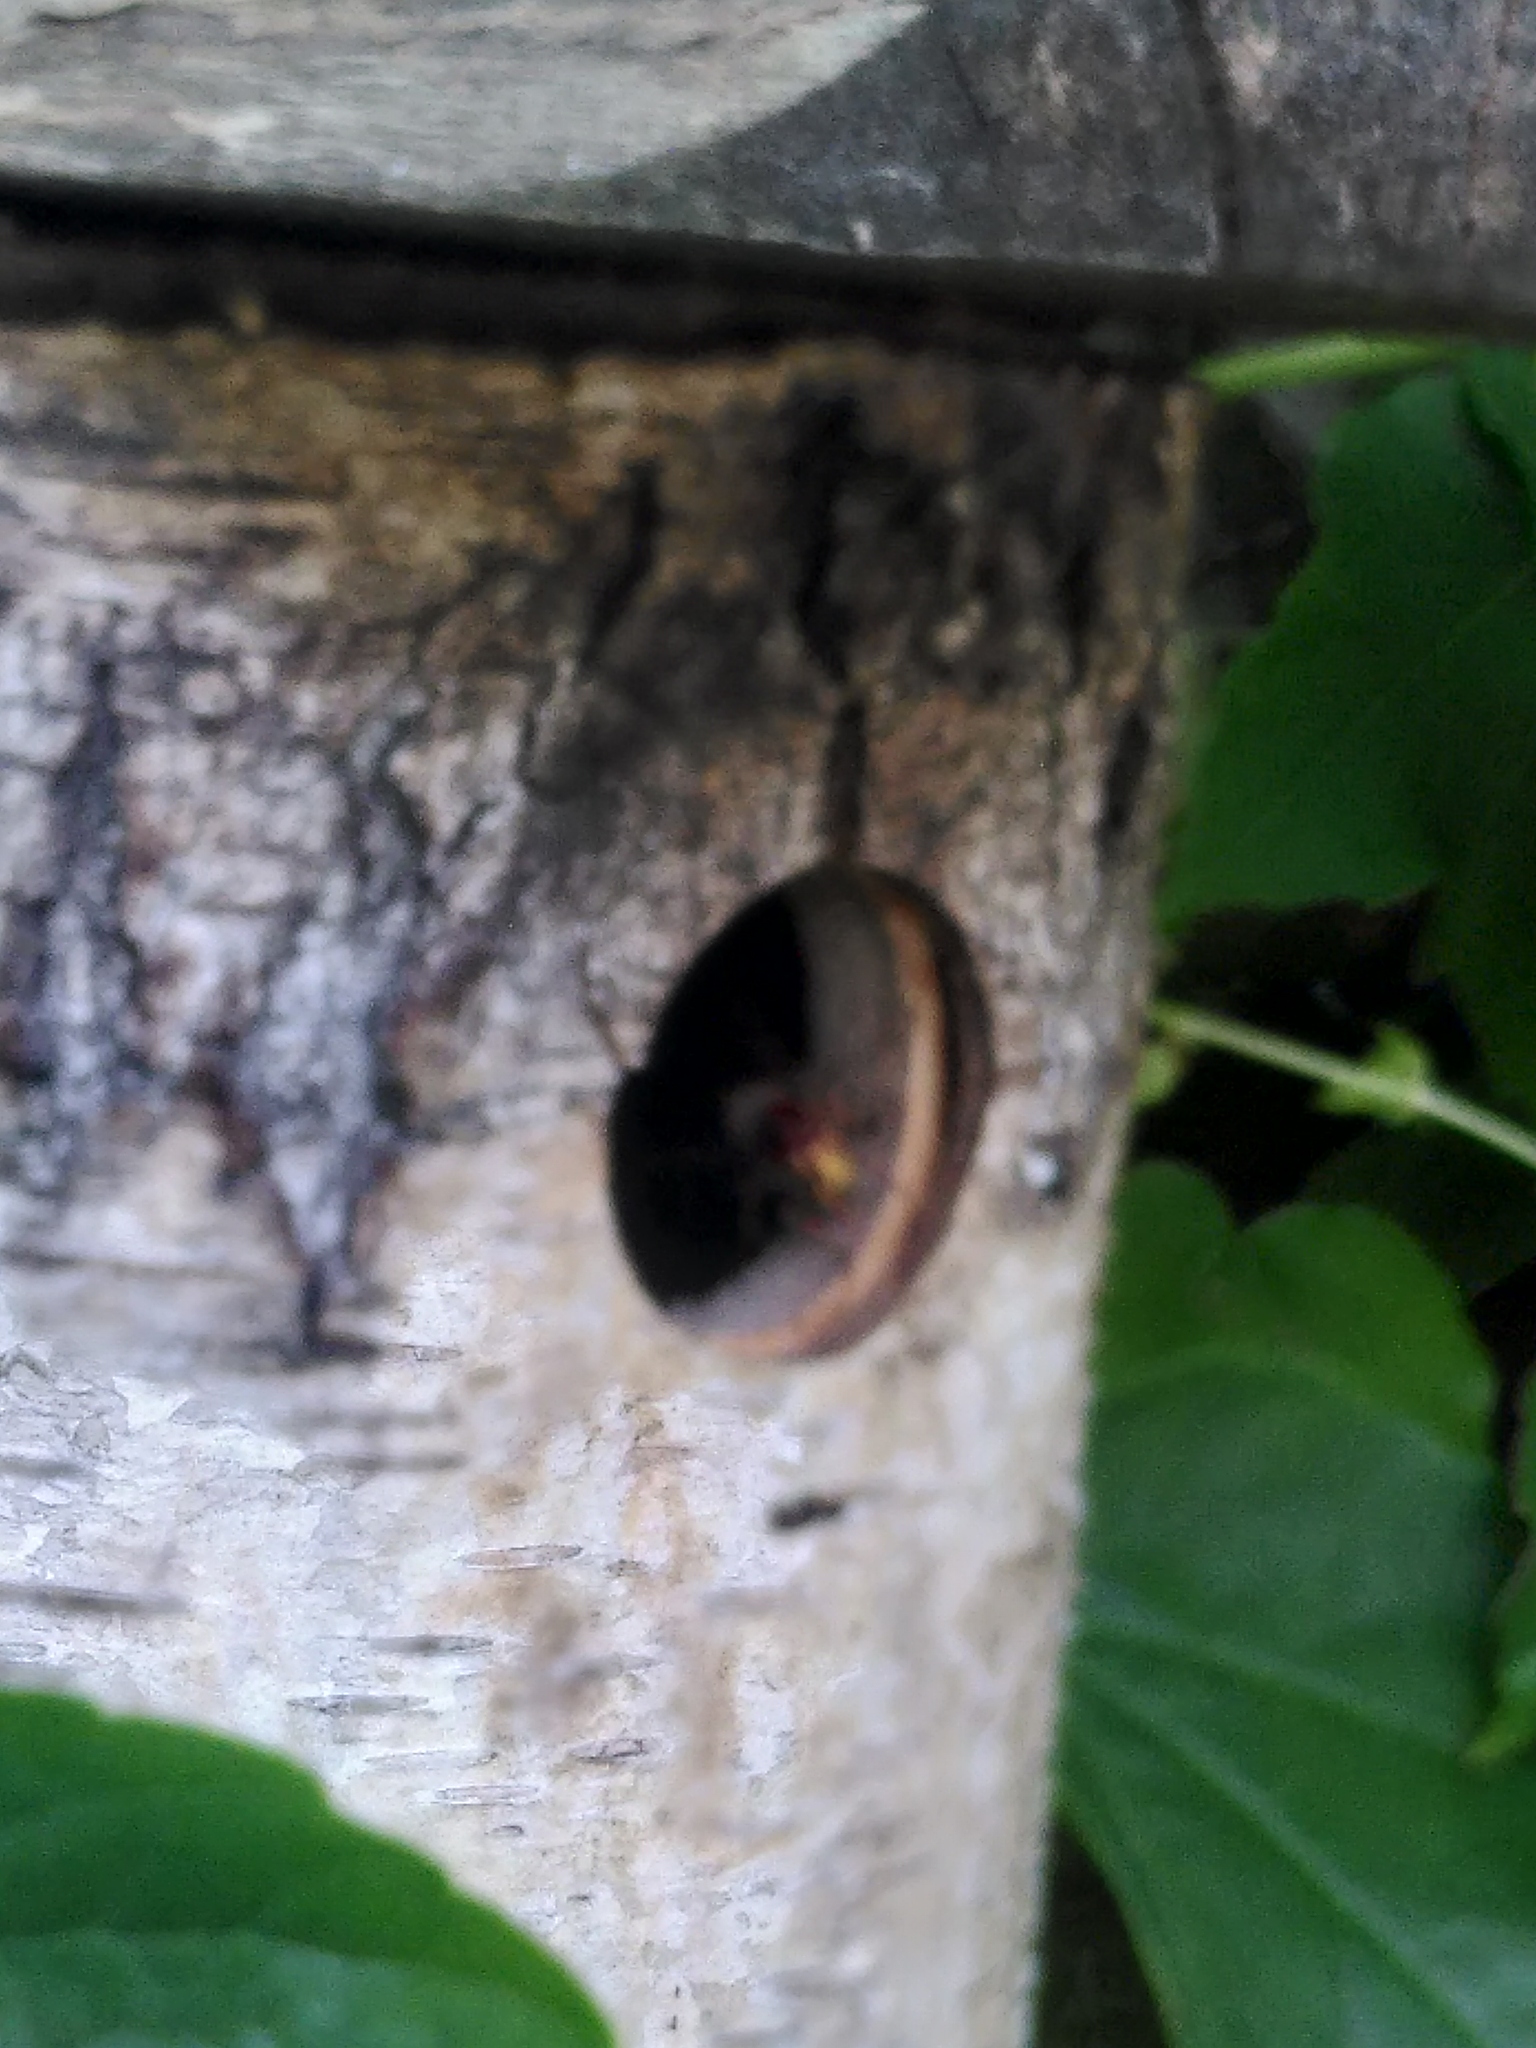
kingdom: Animalia
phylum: Arthropoda
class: Insecta
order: Hymenoptera
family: Vespidae
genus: Vespa
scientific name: Vespa crabro
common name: Hornet
